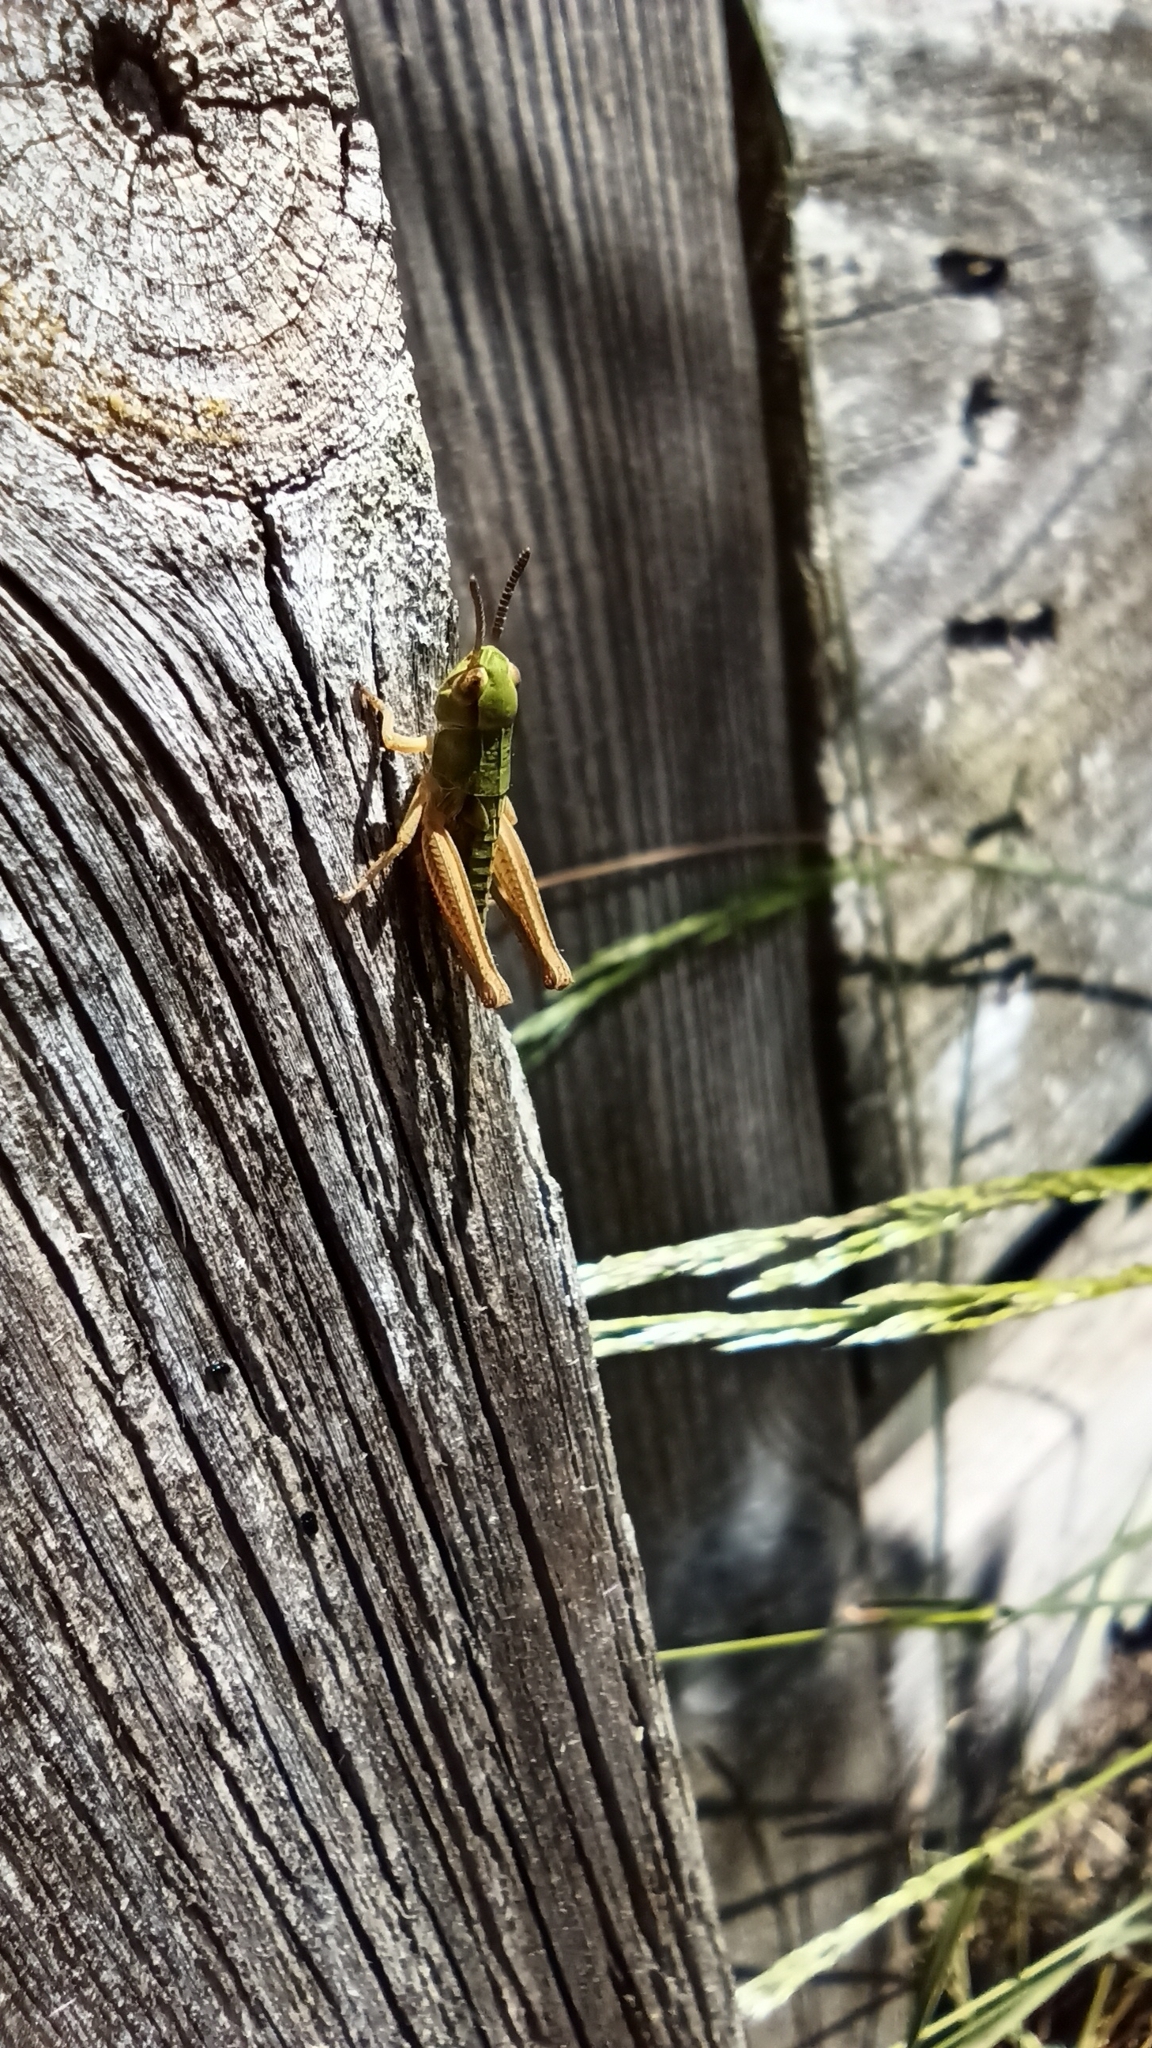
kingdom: Animalia
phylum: Arthropoda
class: Insecta
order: Orthoptera
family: Acrididae
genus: Pseudochorthippus
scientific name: Pseudochorthippus parallelus
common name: Meadow grasshopper
